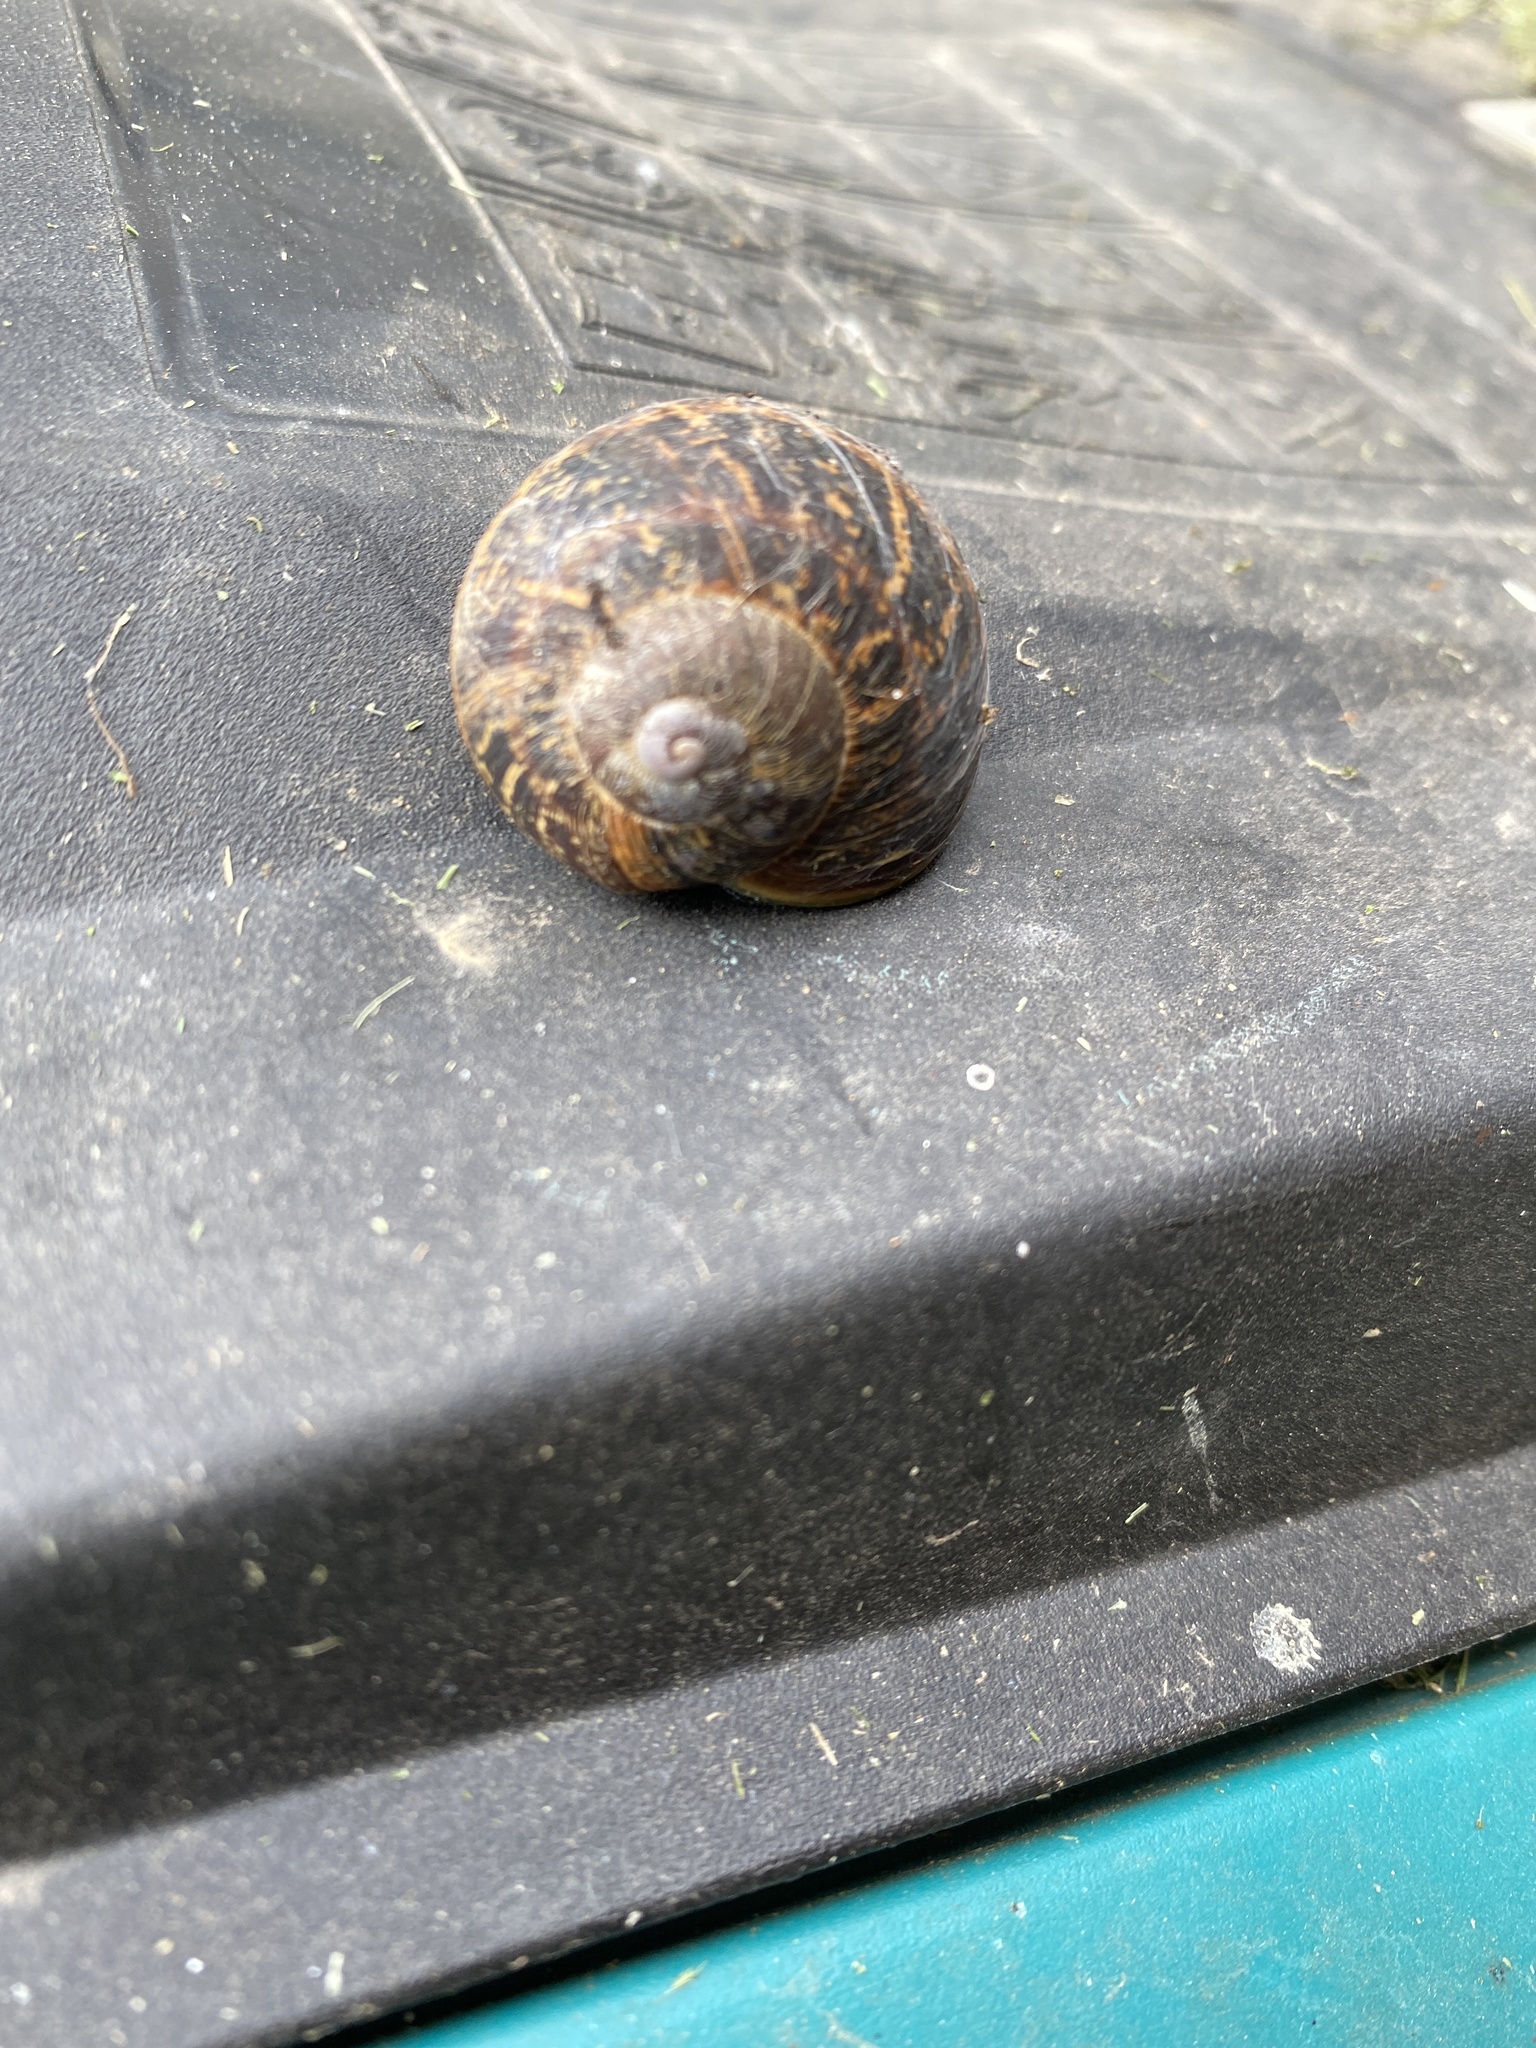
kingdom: Animalia
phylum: Mollusca
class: Gastropoda
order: Stylommatophora
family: Helicidae
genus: Cornu
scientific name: Cornu aspersum
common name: Brown garden snail
